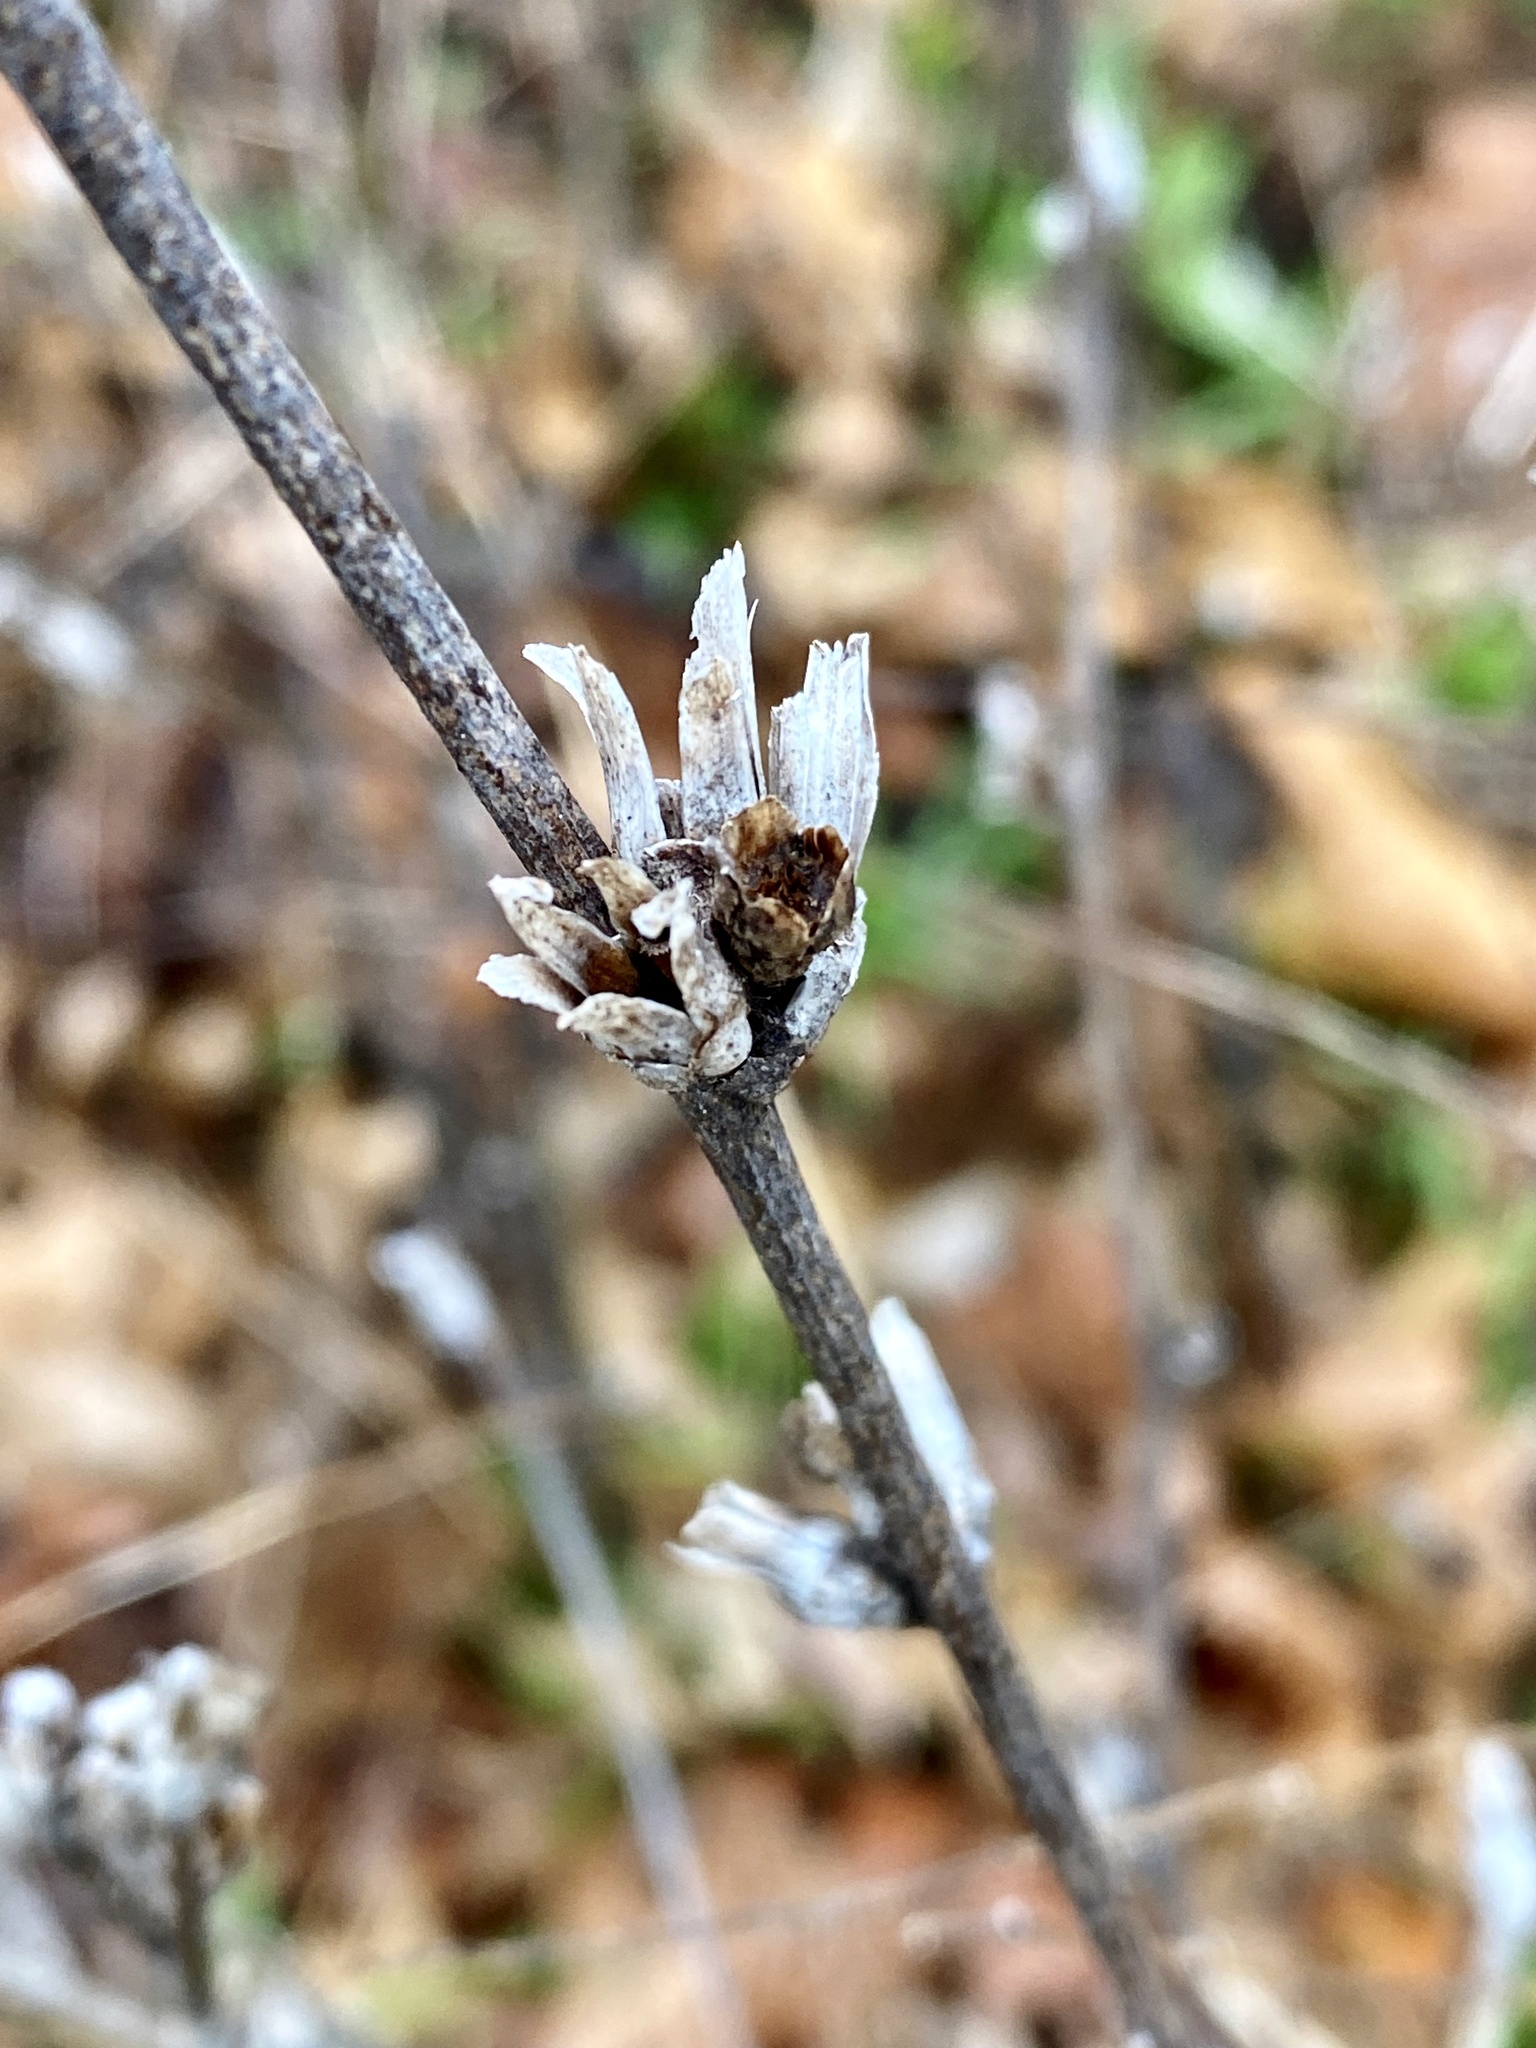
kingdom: Plantae
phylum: Tracheophyta
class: Magnoliopsida
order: Asterales
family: Asteraceae
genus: Cichorium
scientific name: Cichorium intybus
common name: Chicory
